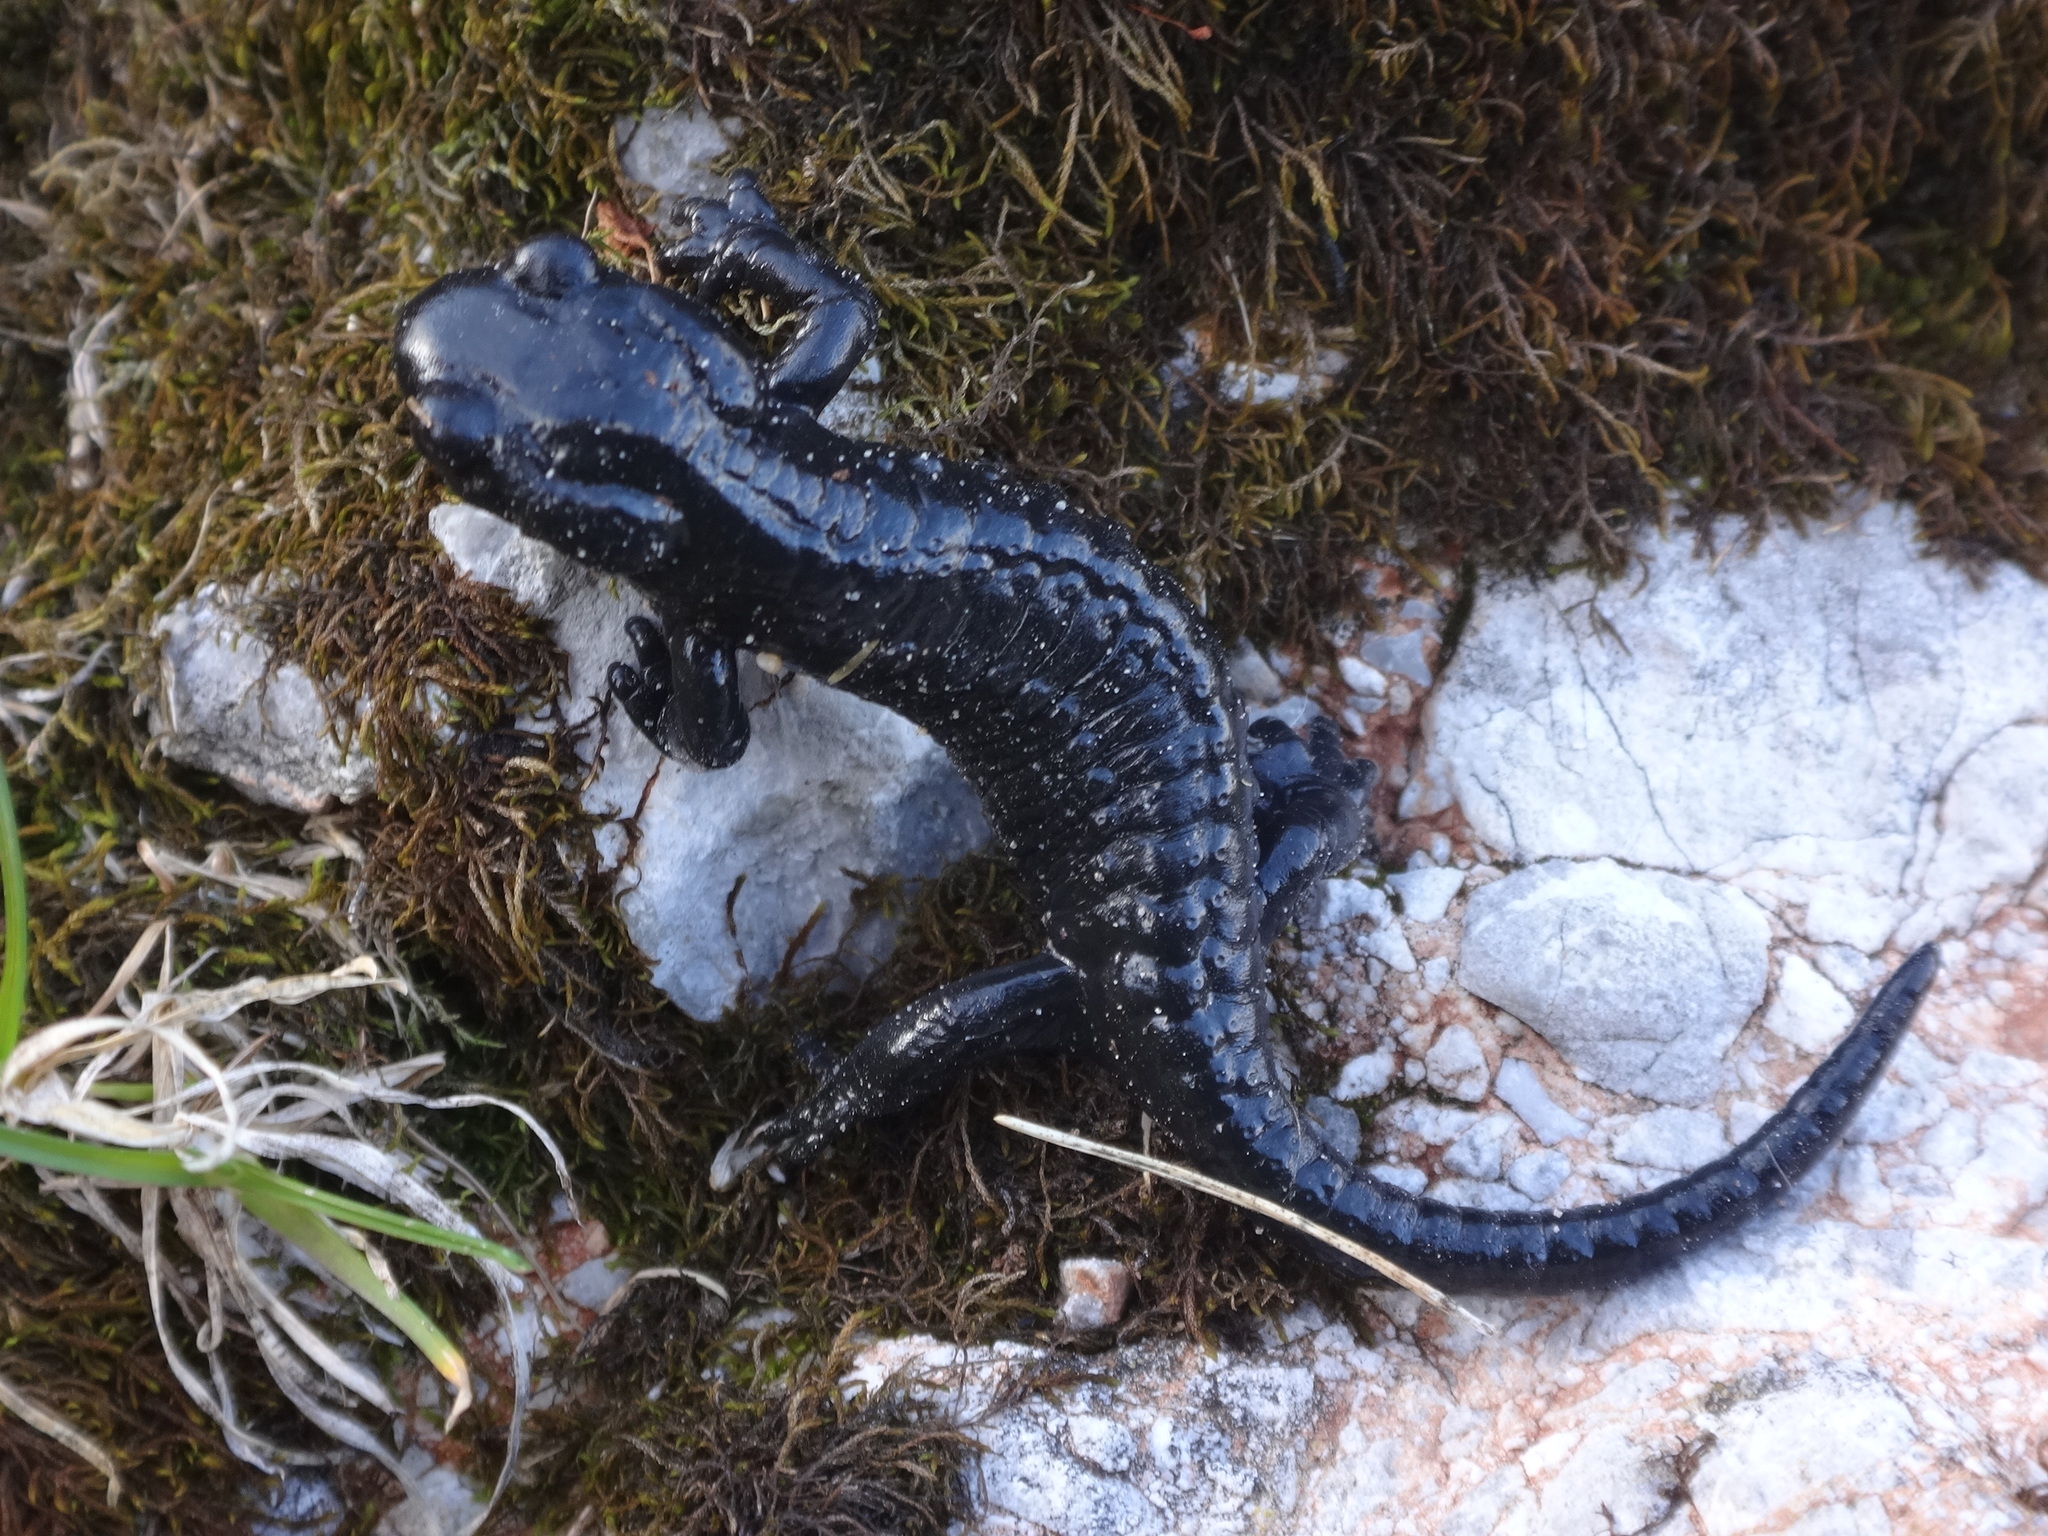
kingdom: Animalia
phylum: Chordata
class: Amphibia
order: Caudata
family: Salamandridae
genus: Salamandra
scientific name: Salamandra atra
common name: Alpine salamander
